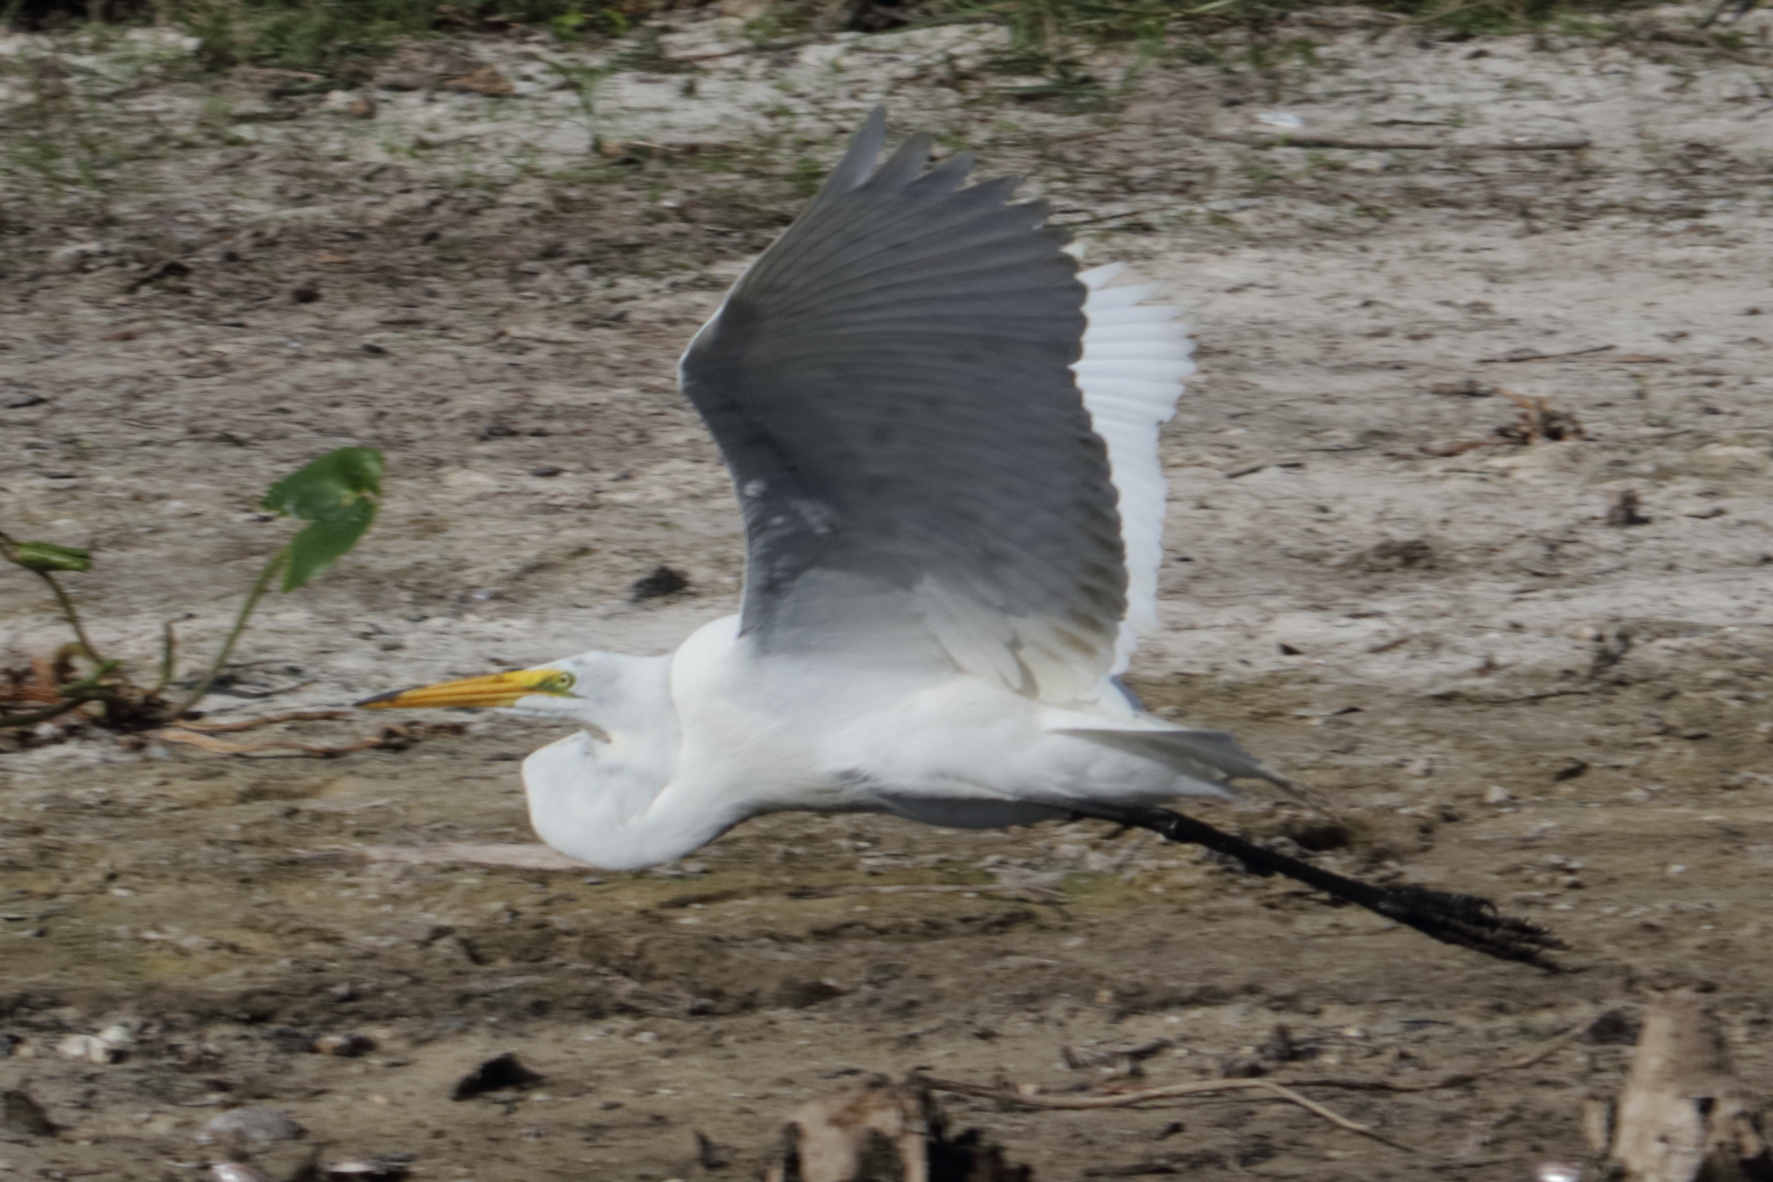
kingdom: Animalia
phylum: Chordata
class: Aves
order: Pelecaniformes
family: Ardeidae
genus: Ardea
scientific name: Ardea alba
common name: Great egret
